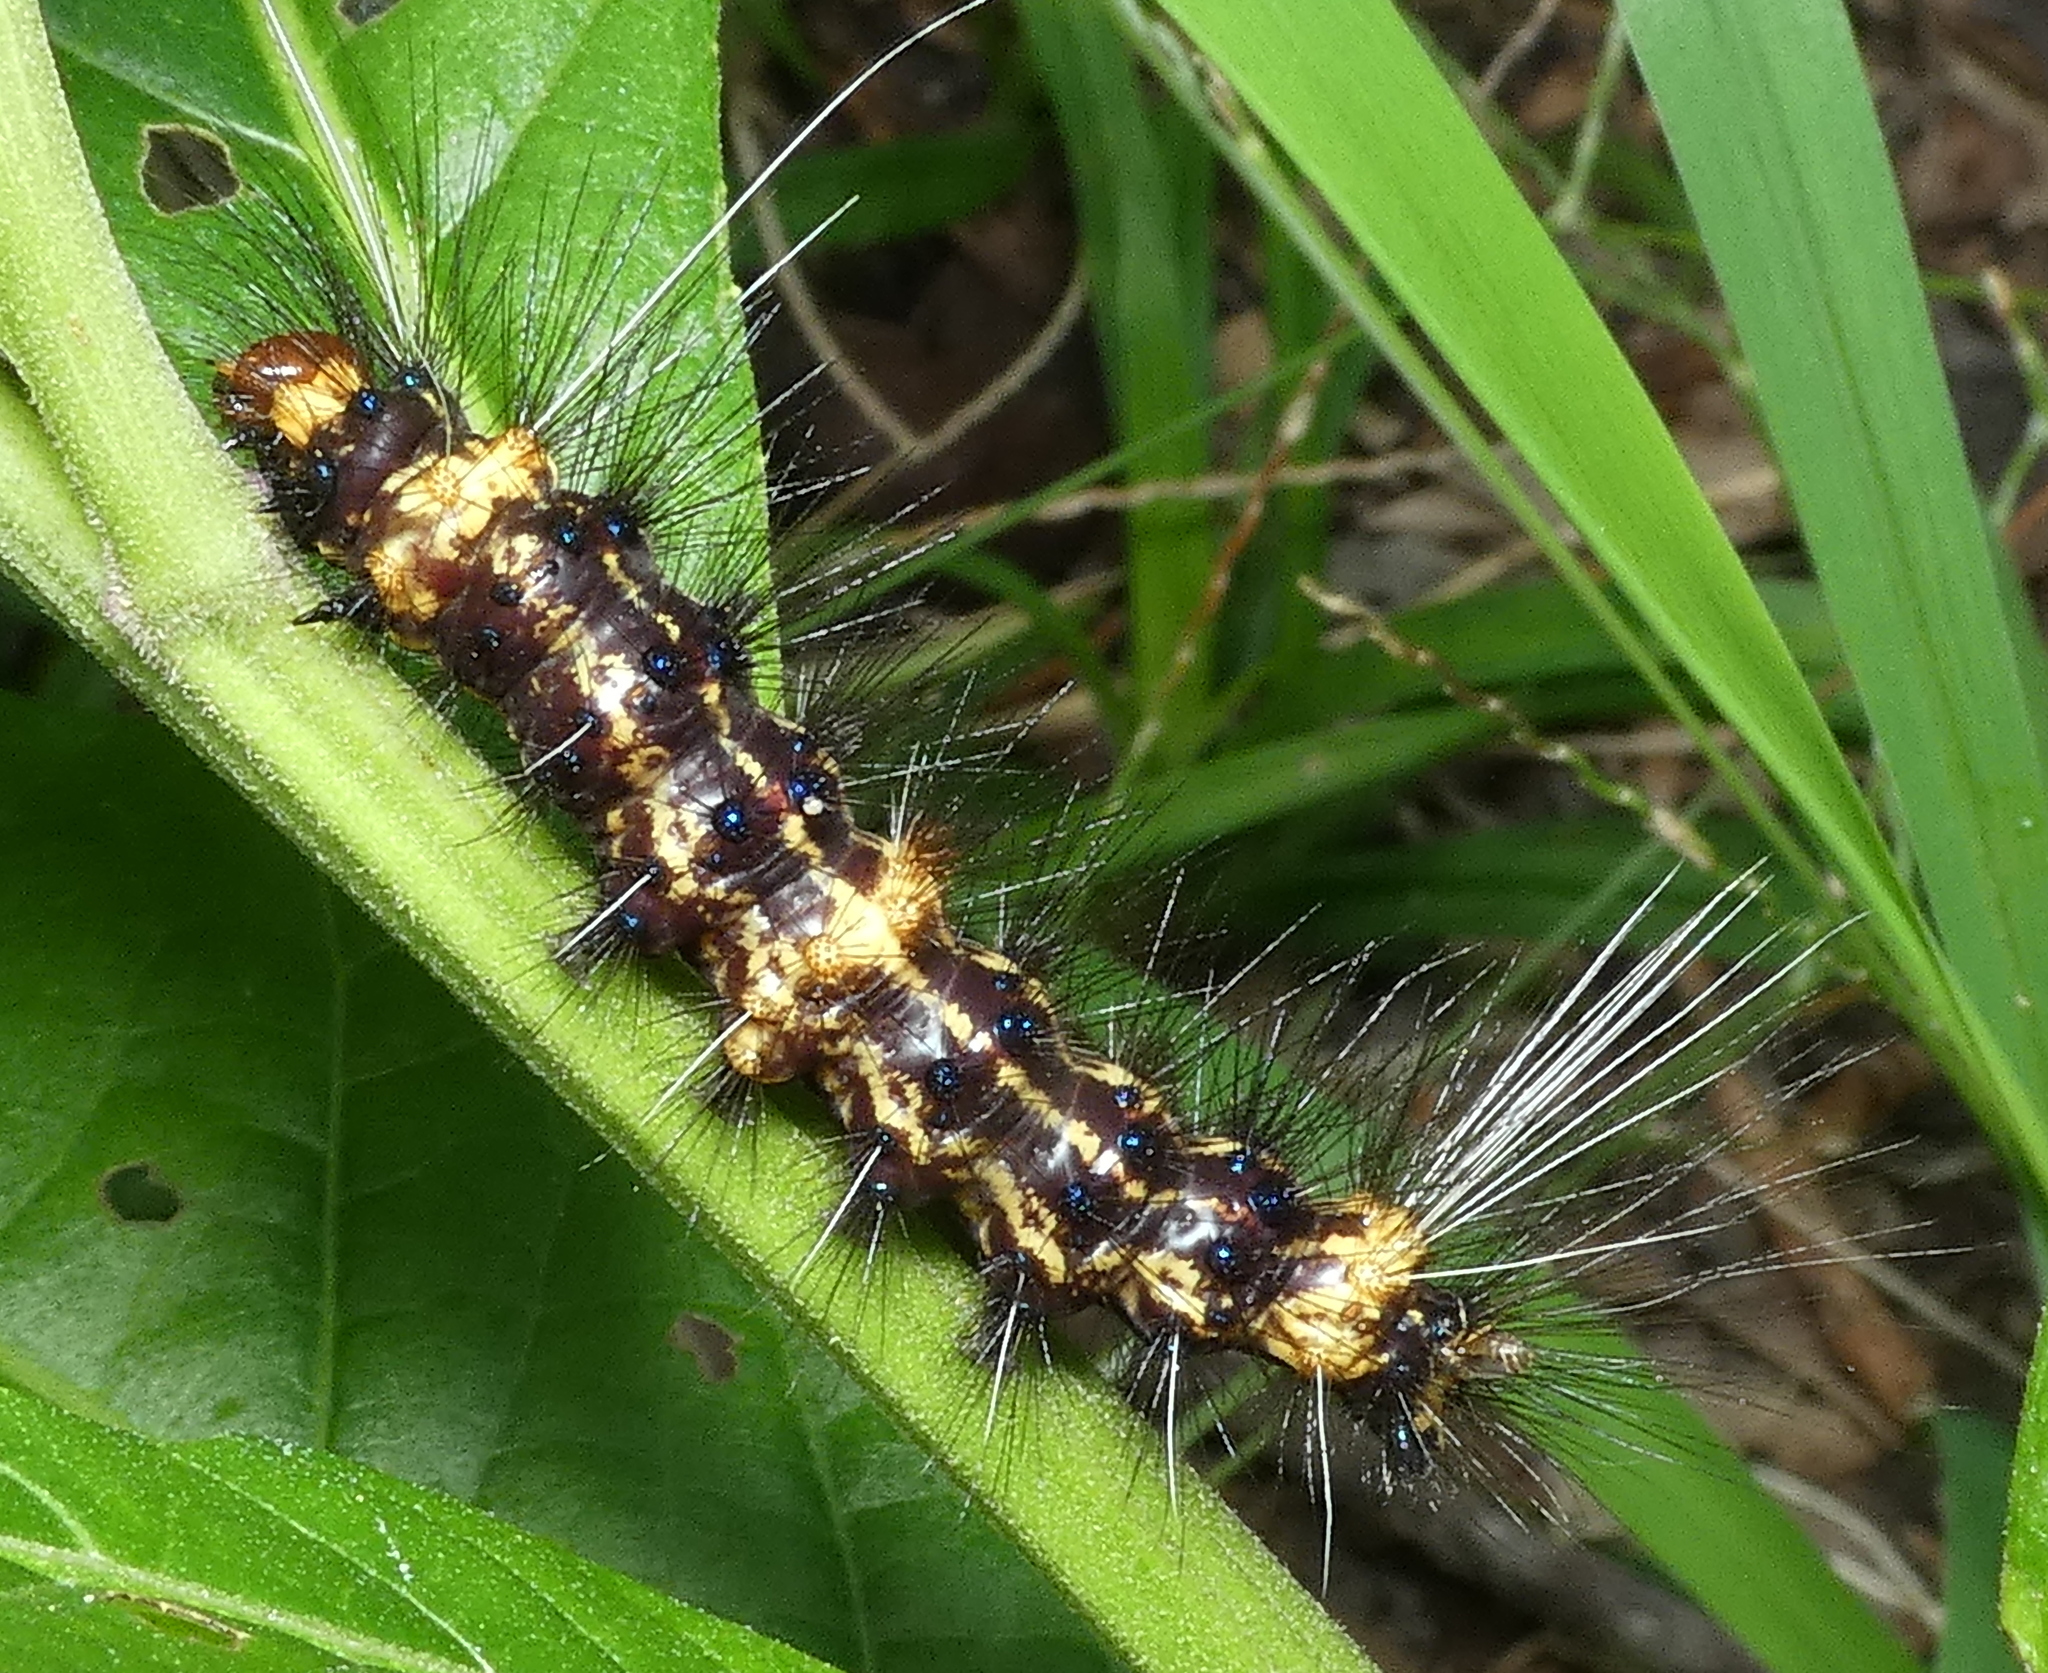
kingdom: Animalia
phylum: Arthropoda
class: Insecta
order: Lepidoptera
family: Erebidae
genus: Dysschema
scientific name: Dysschema tricolora
